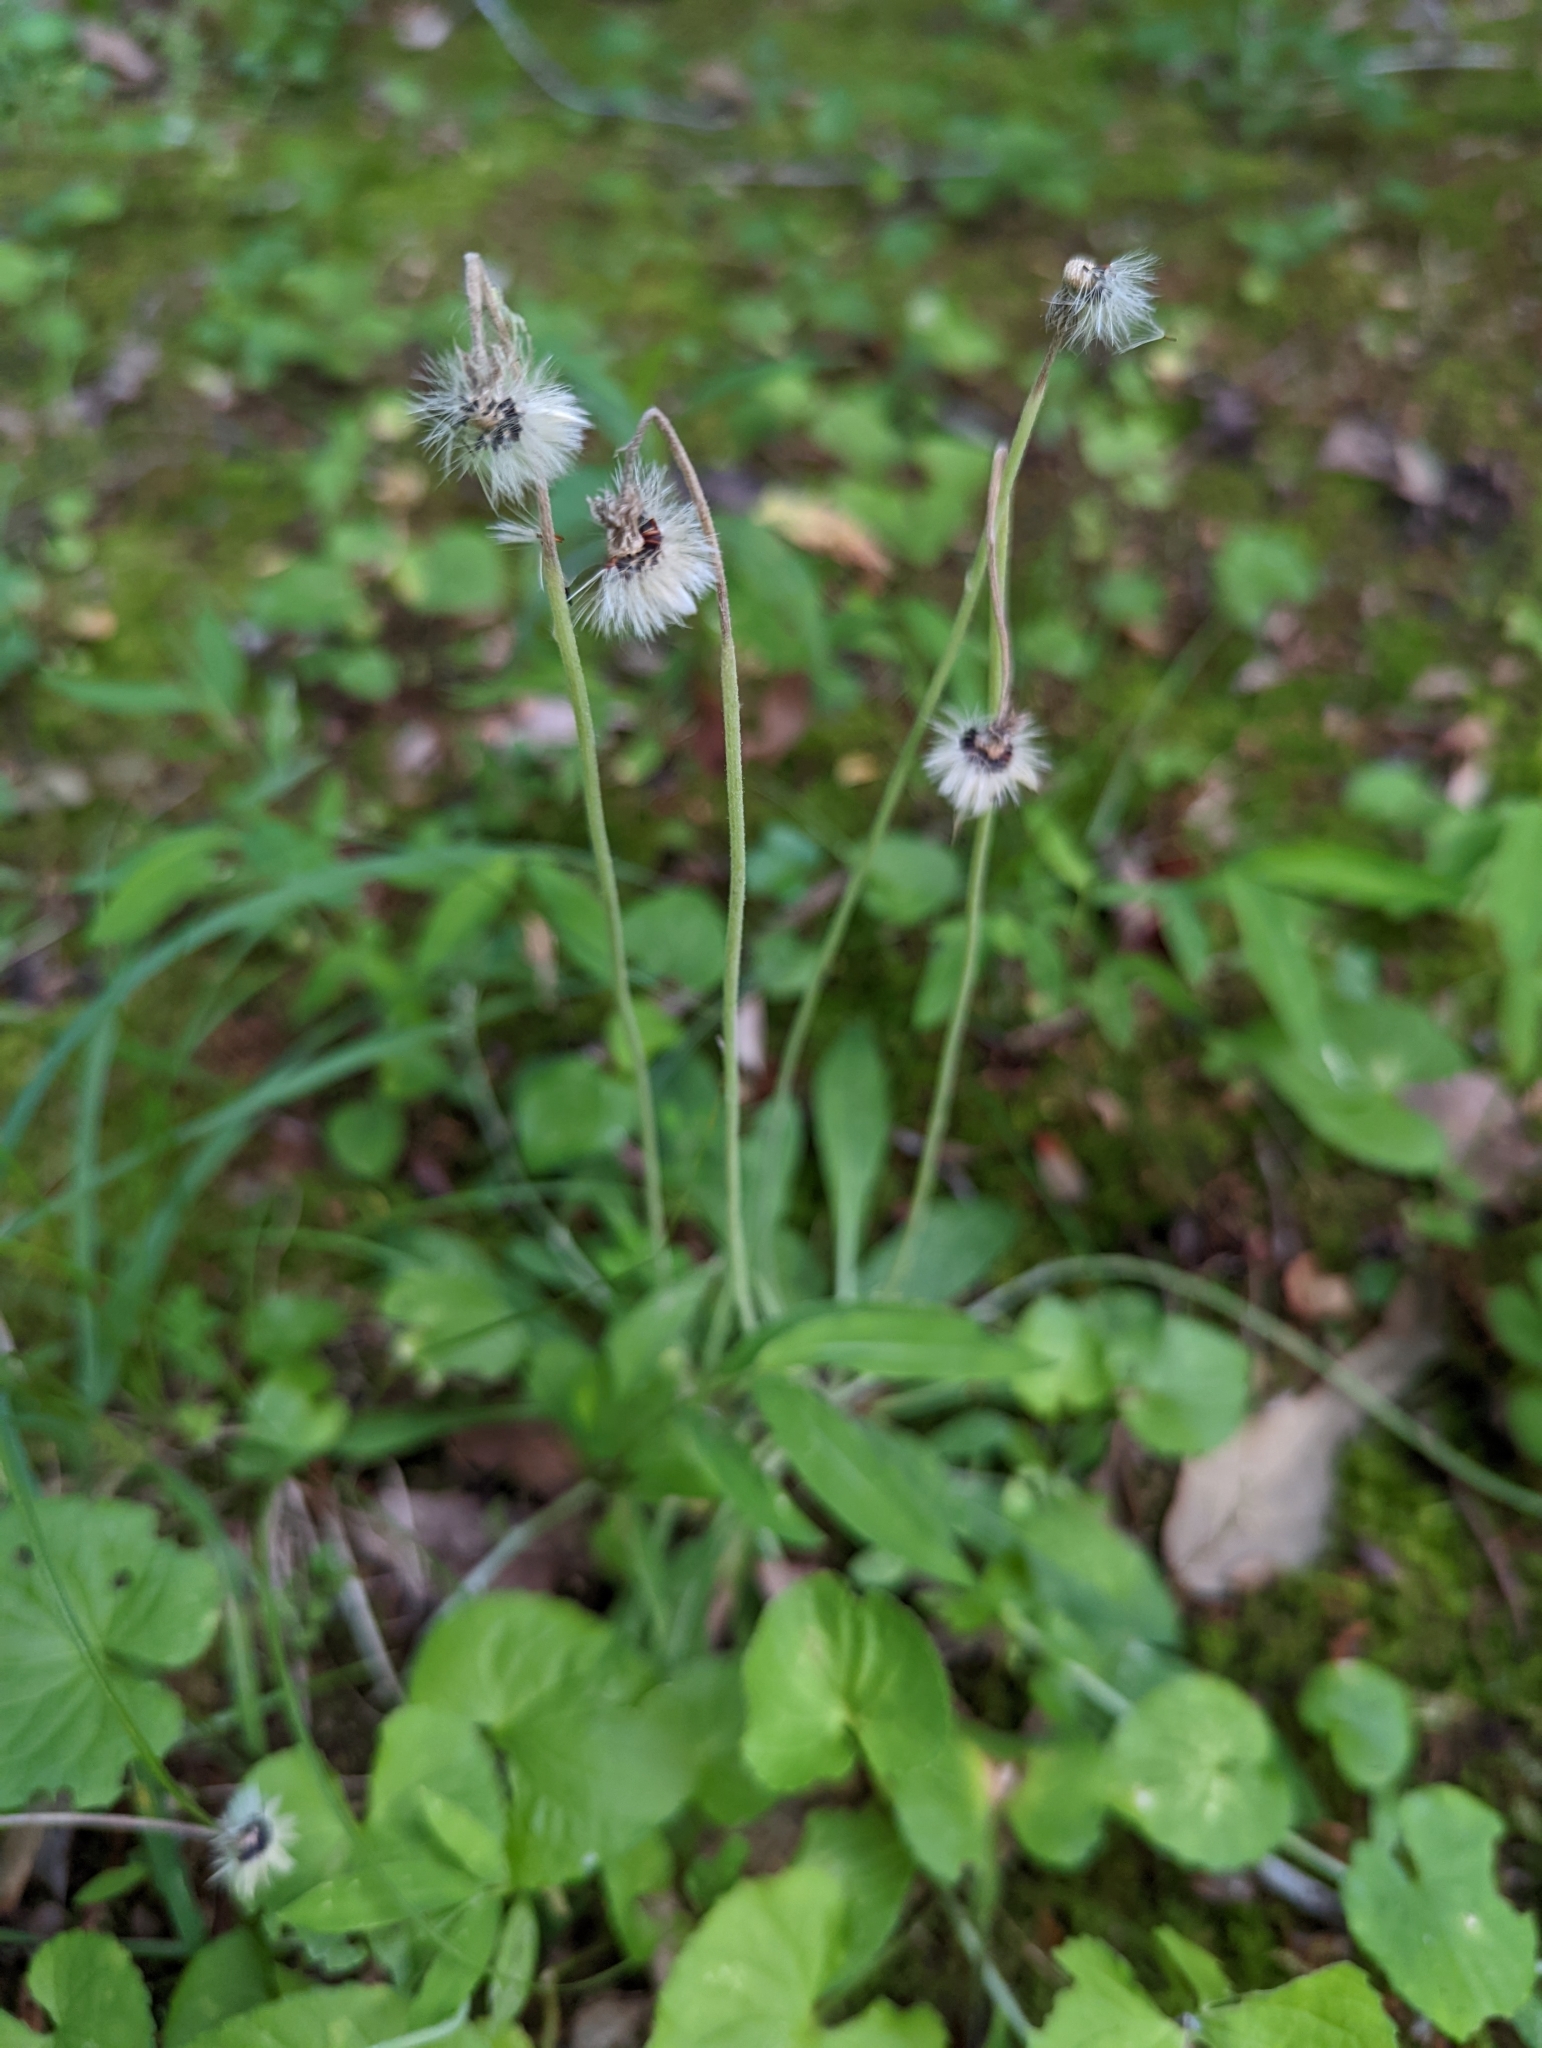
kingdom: Plantae
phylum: Tracheophyta
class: Magnoliopsida
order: Asterales
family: Asteraceae
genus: Pilosella
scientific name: Pilosella officinarum
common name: Mouse-ear hawkweed
